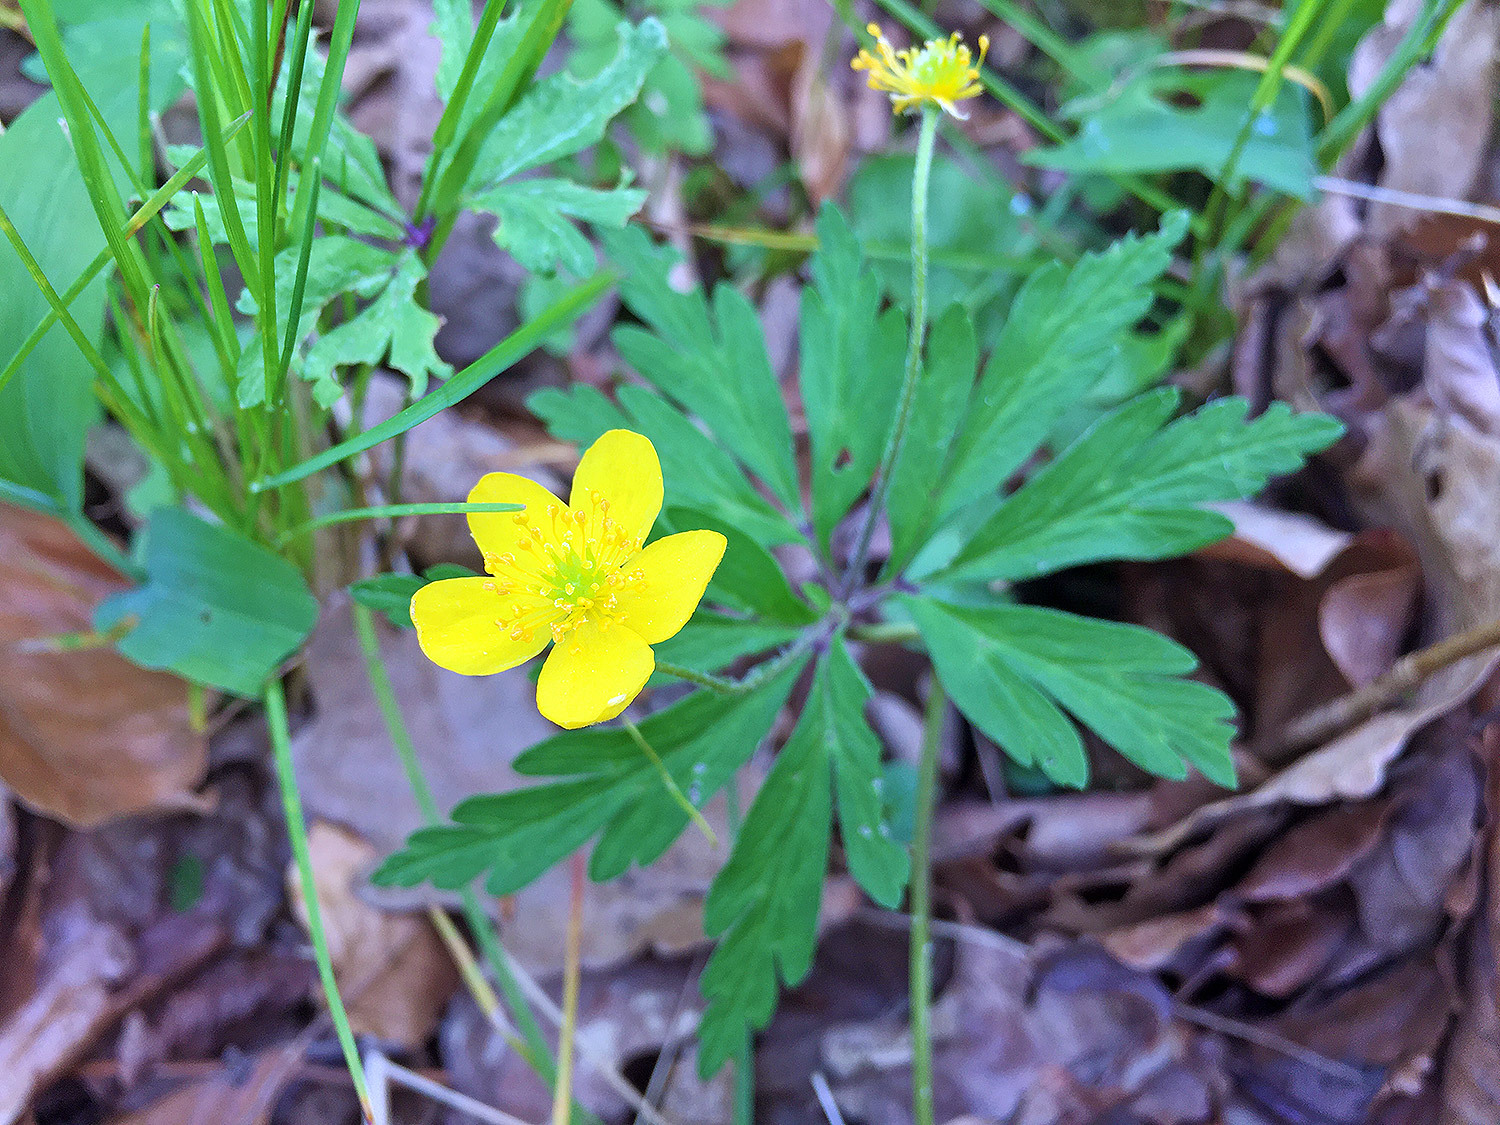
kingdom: Plantae
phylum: Tracheophyta
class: Magnoliopsida
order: Ranunculales
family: Ranunculaceae
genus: Anemone
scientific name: Anemone ranunculoides
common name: Yellow anemone
